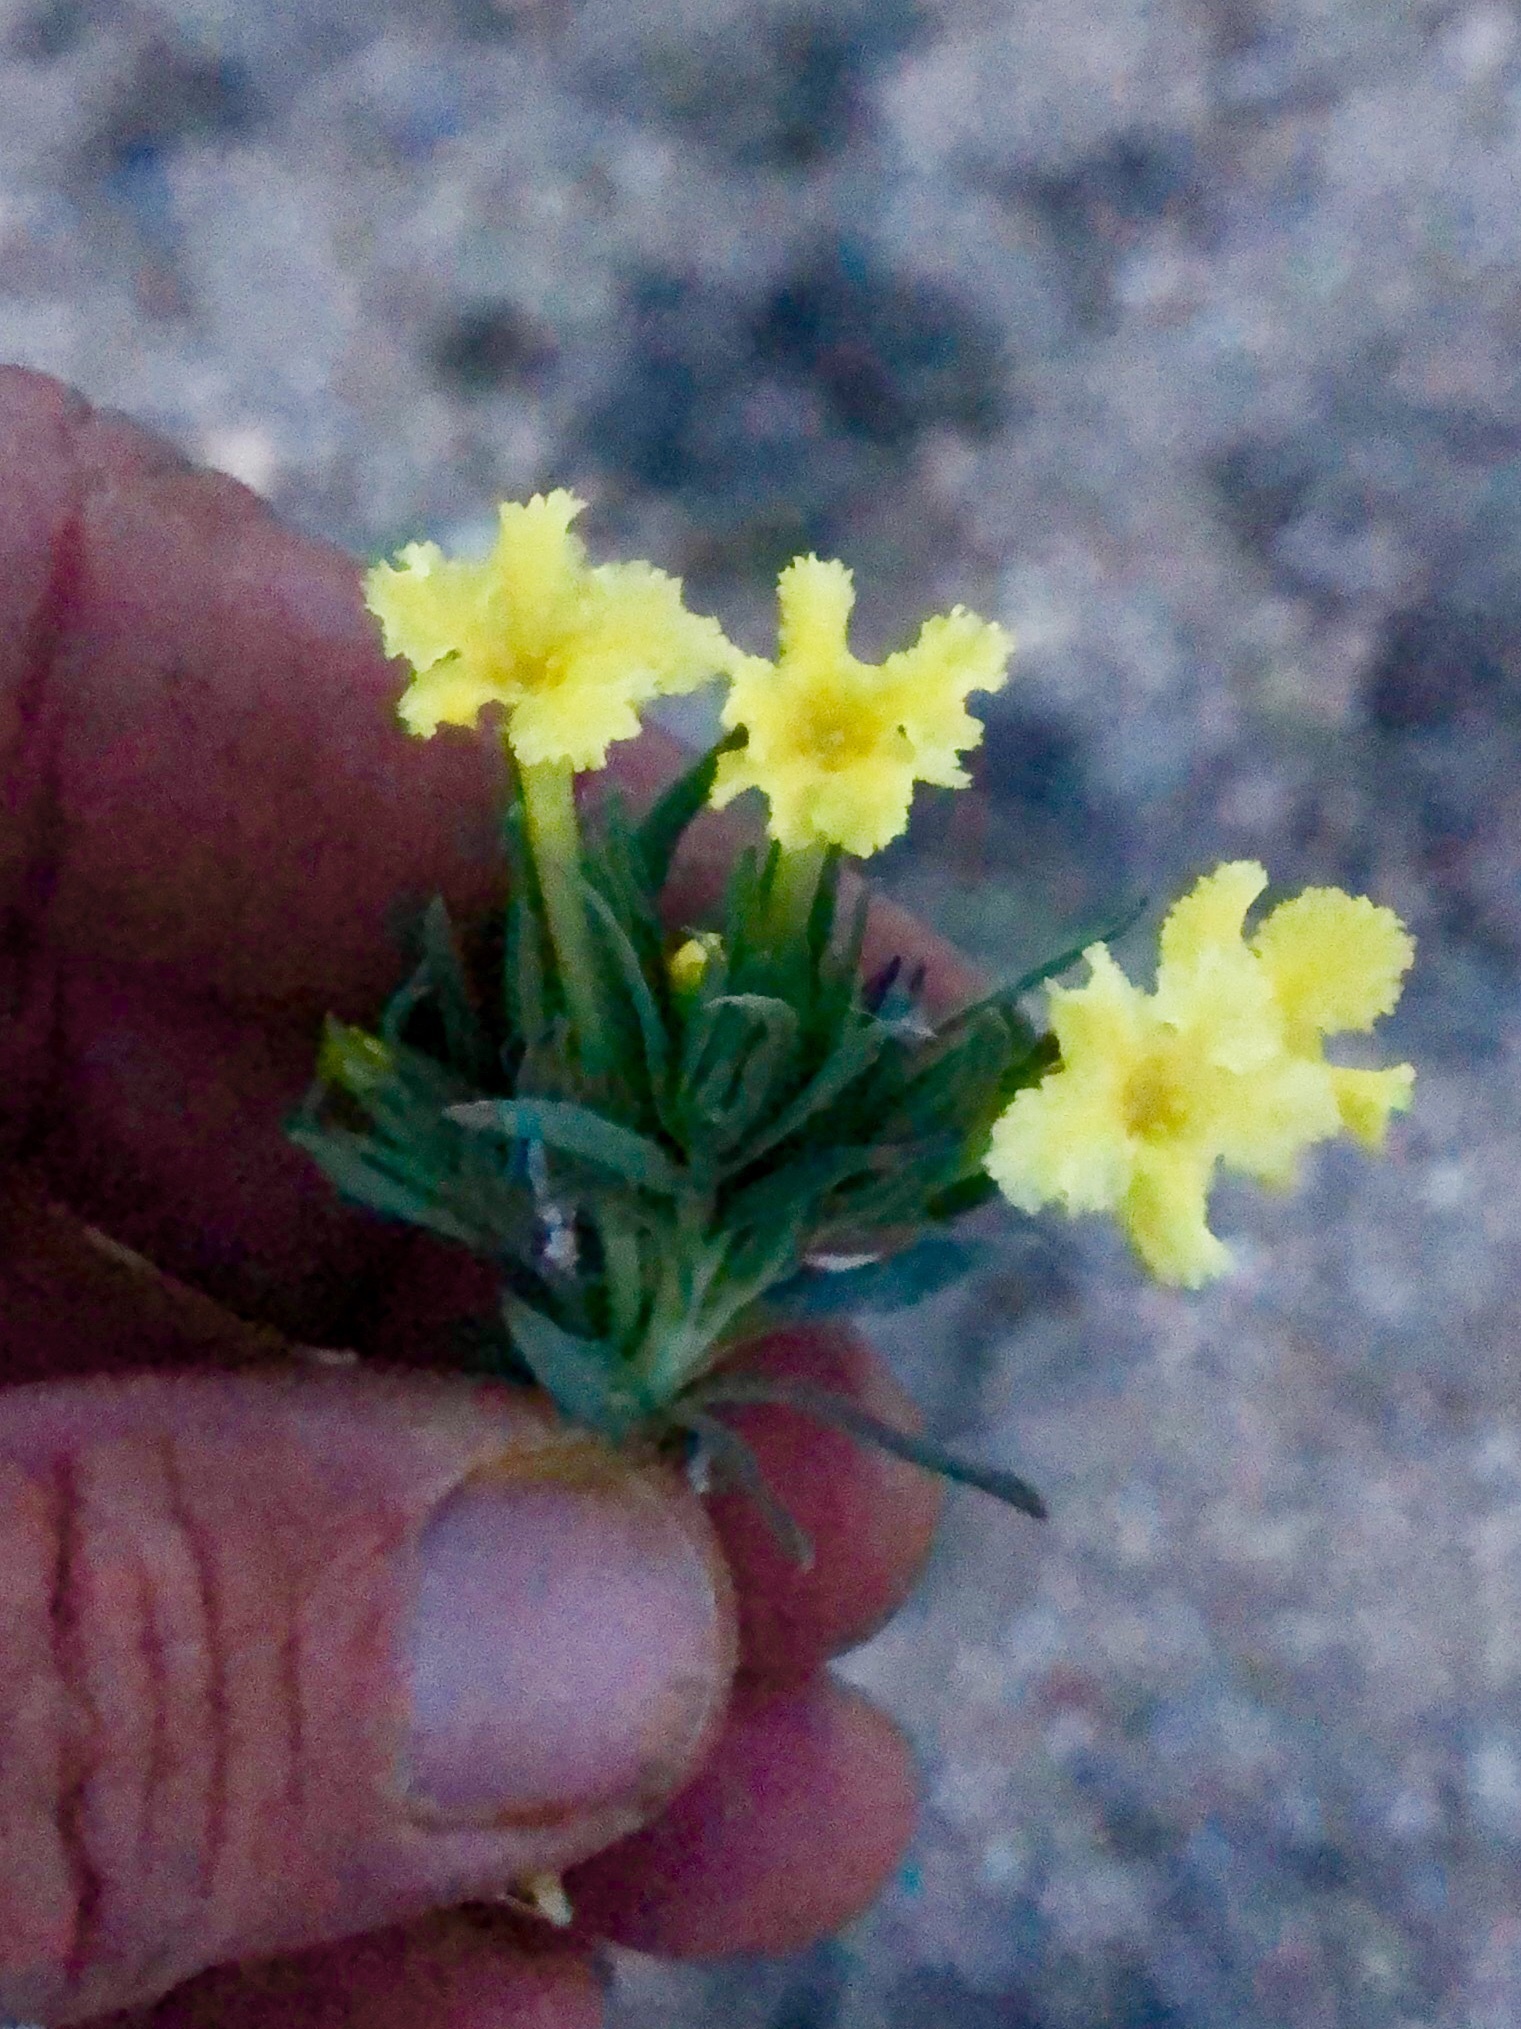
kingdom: Plantae
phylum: Tracheophyta
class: Magnoliopsida
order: Boraginales
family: Boraginaceae
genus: Lithospermum
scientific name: Lithospermum incisum
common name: Fringed gromwell
